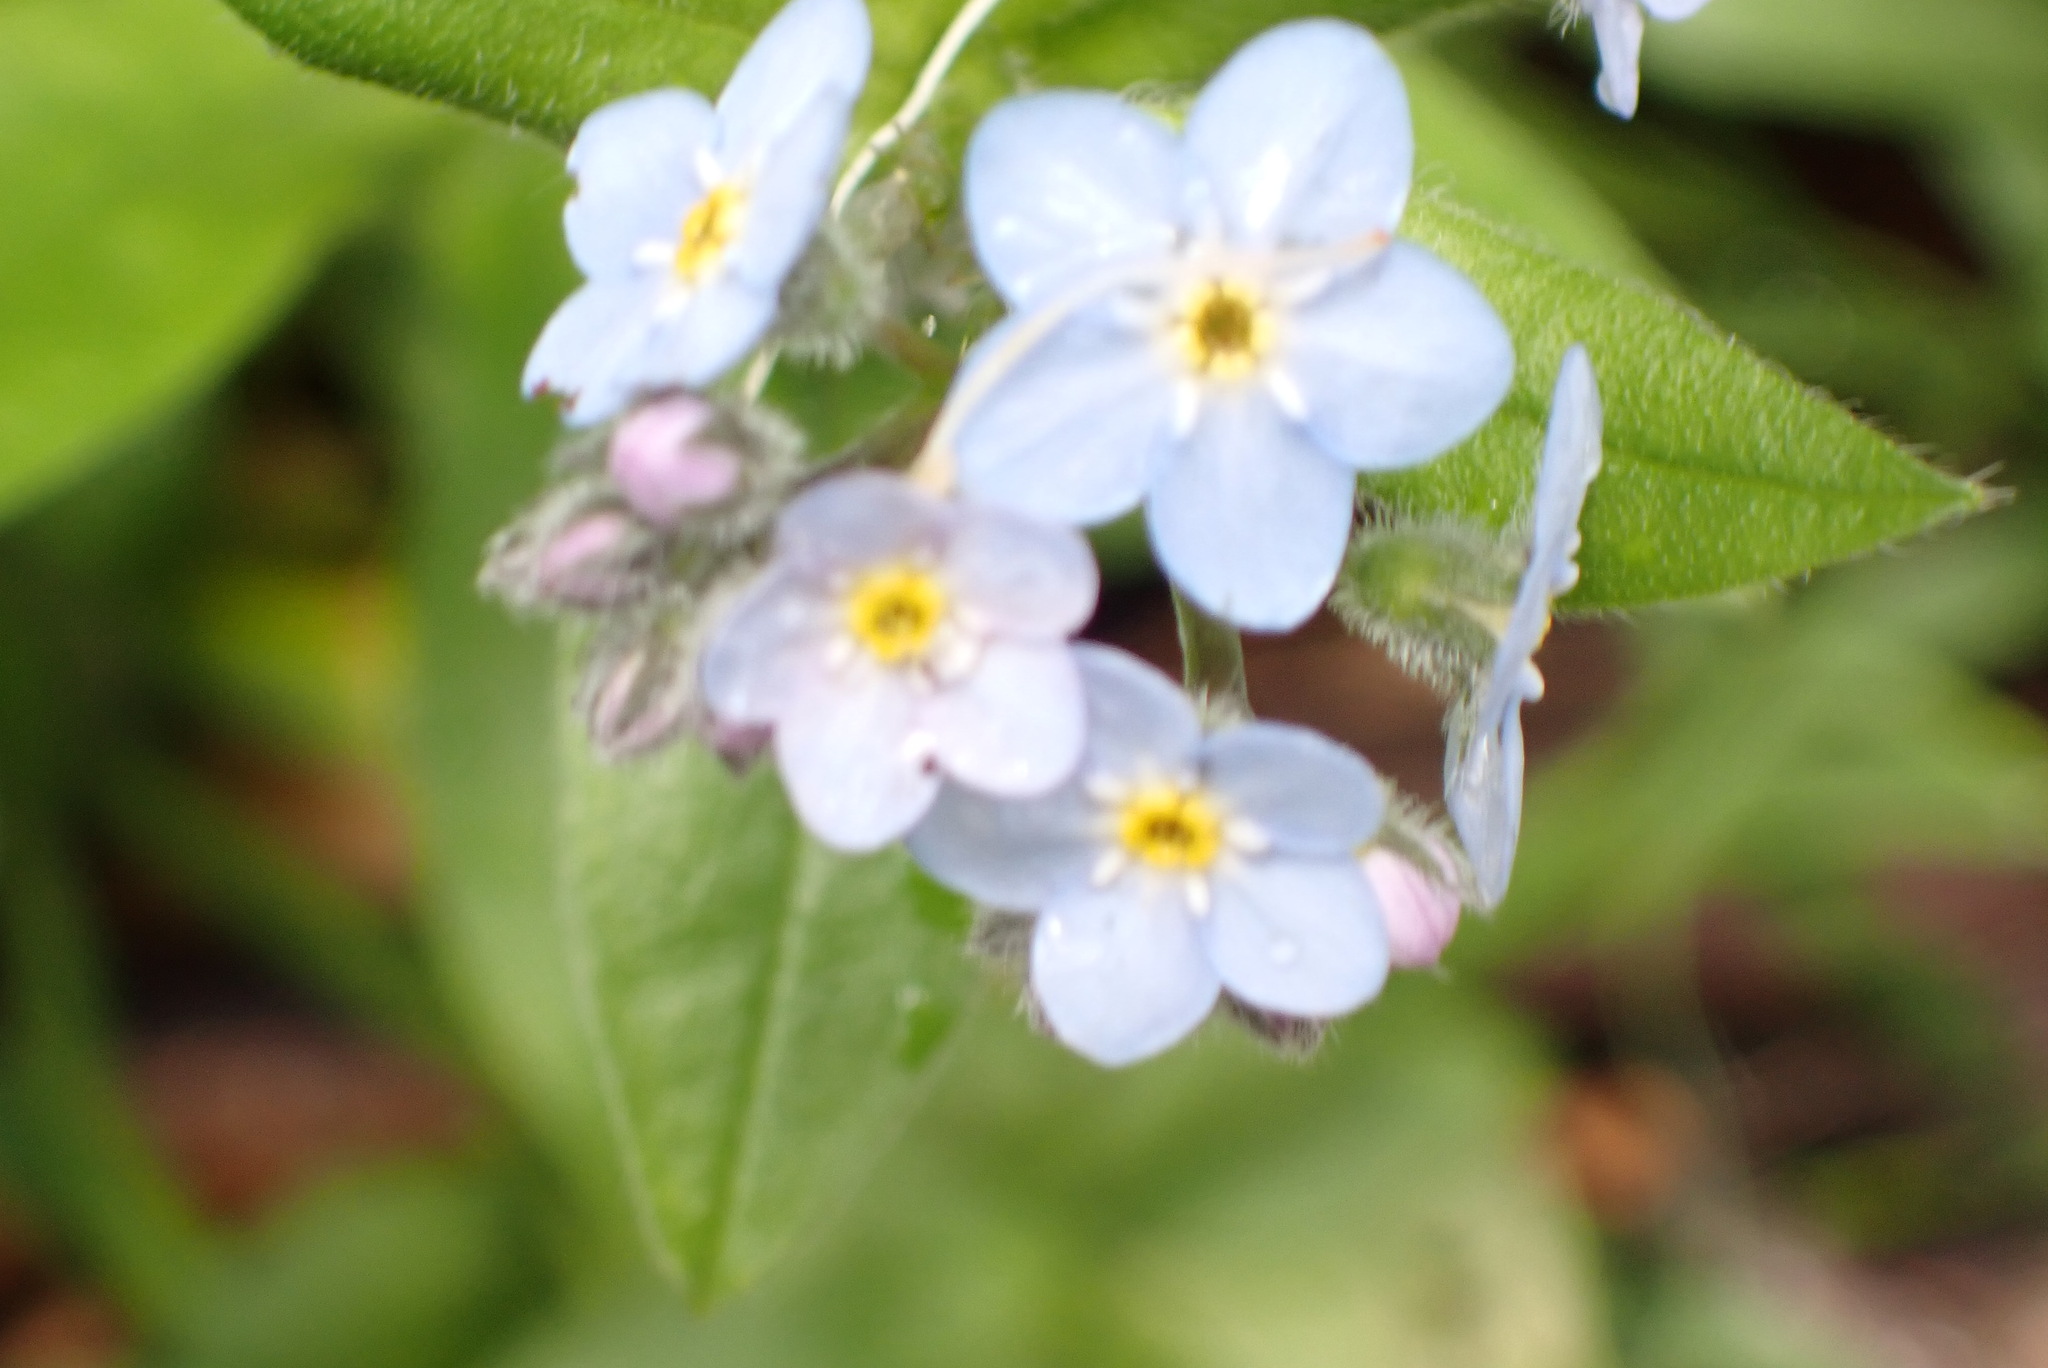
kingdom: Plantae
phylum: Tracheophyta
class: Magnoliopsida
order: Boraginales
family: Boraginaceae
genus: Myosotis
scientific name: Myosotis latifolia
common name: Broadleaf forget-me-not
